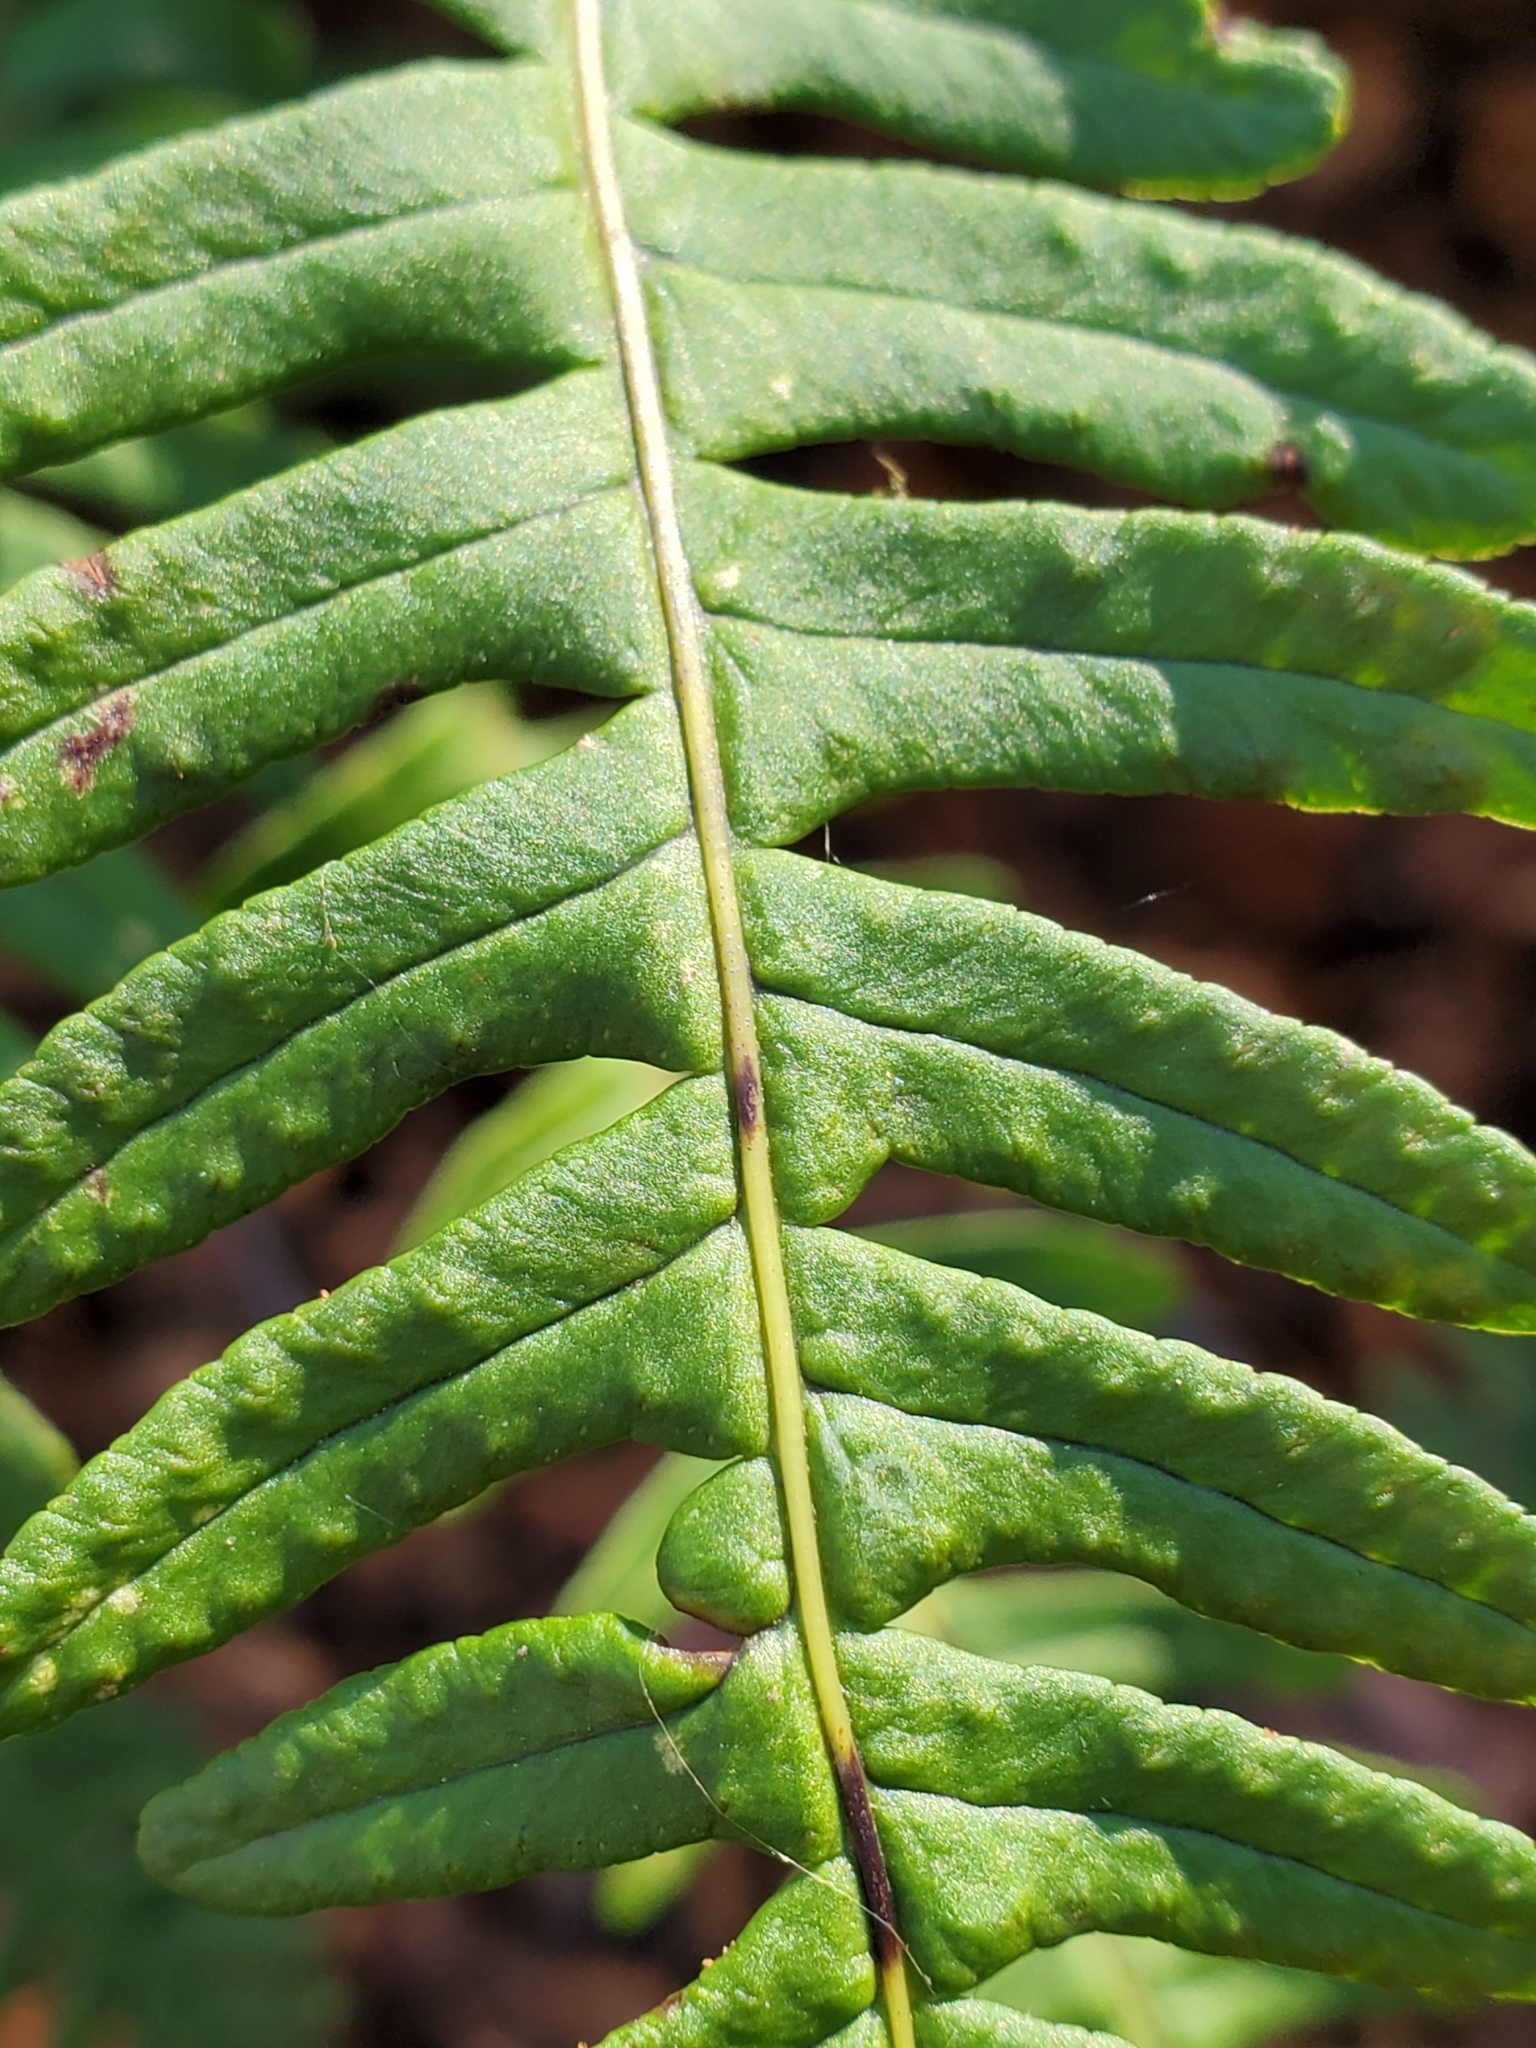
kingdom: Plantae
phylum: Tracheophyta
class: Polypodiopsida
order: Polypodiales
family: Polypodiaceae
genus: Polypodium
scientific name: Polypodium virginianum
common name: American wall fern
